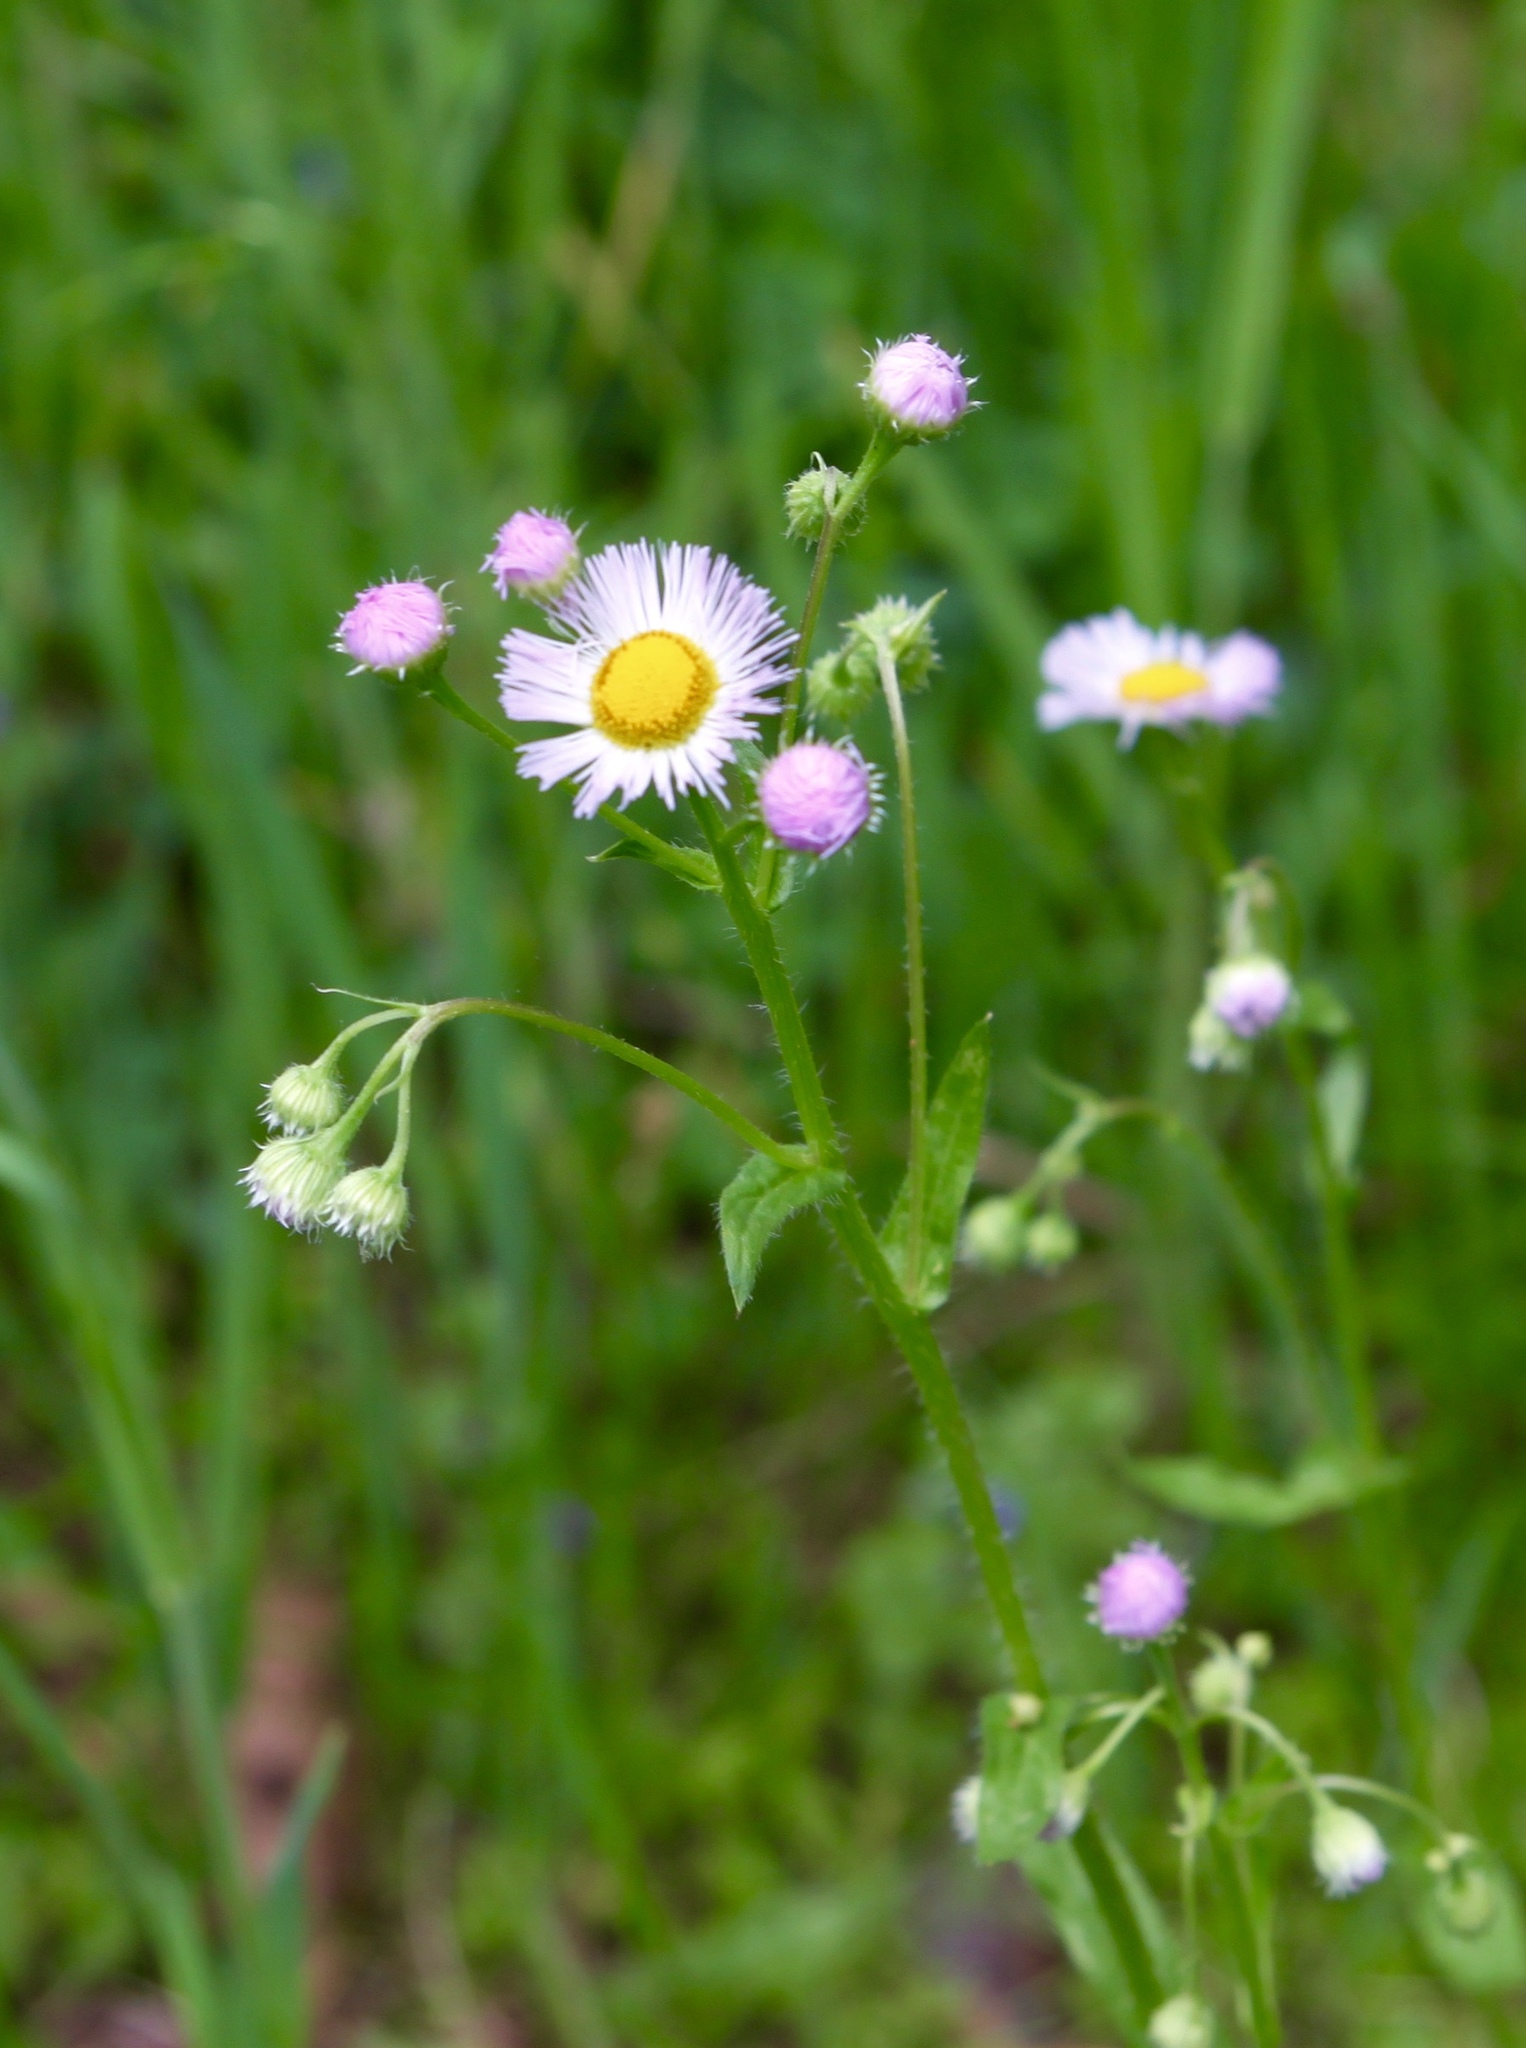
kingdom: Plantae
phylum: Tracheophyta
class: Magnoliopsida
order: Asterales
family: Asteraceae
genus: Erigeron
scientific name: Erigeron philadelphicus
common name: Robin's-plantain
